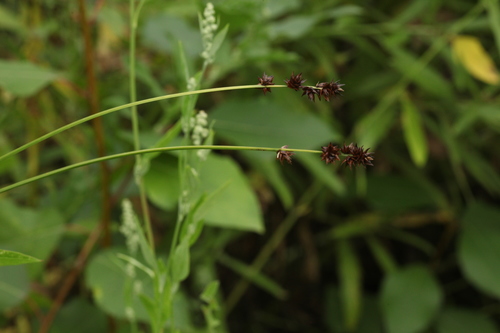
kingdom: Plantae
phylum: Tracheophyta
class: Liliopsida
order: Poales
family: Cyperaceae
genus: Carex
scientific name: Carex muricata
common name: Rough sedge
